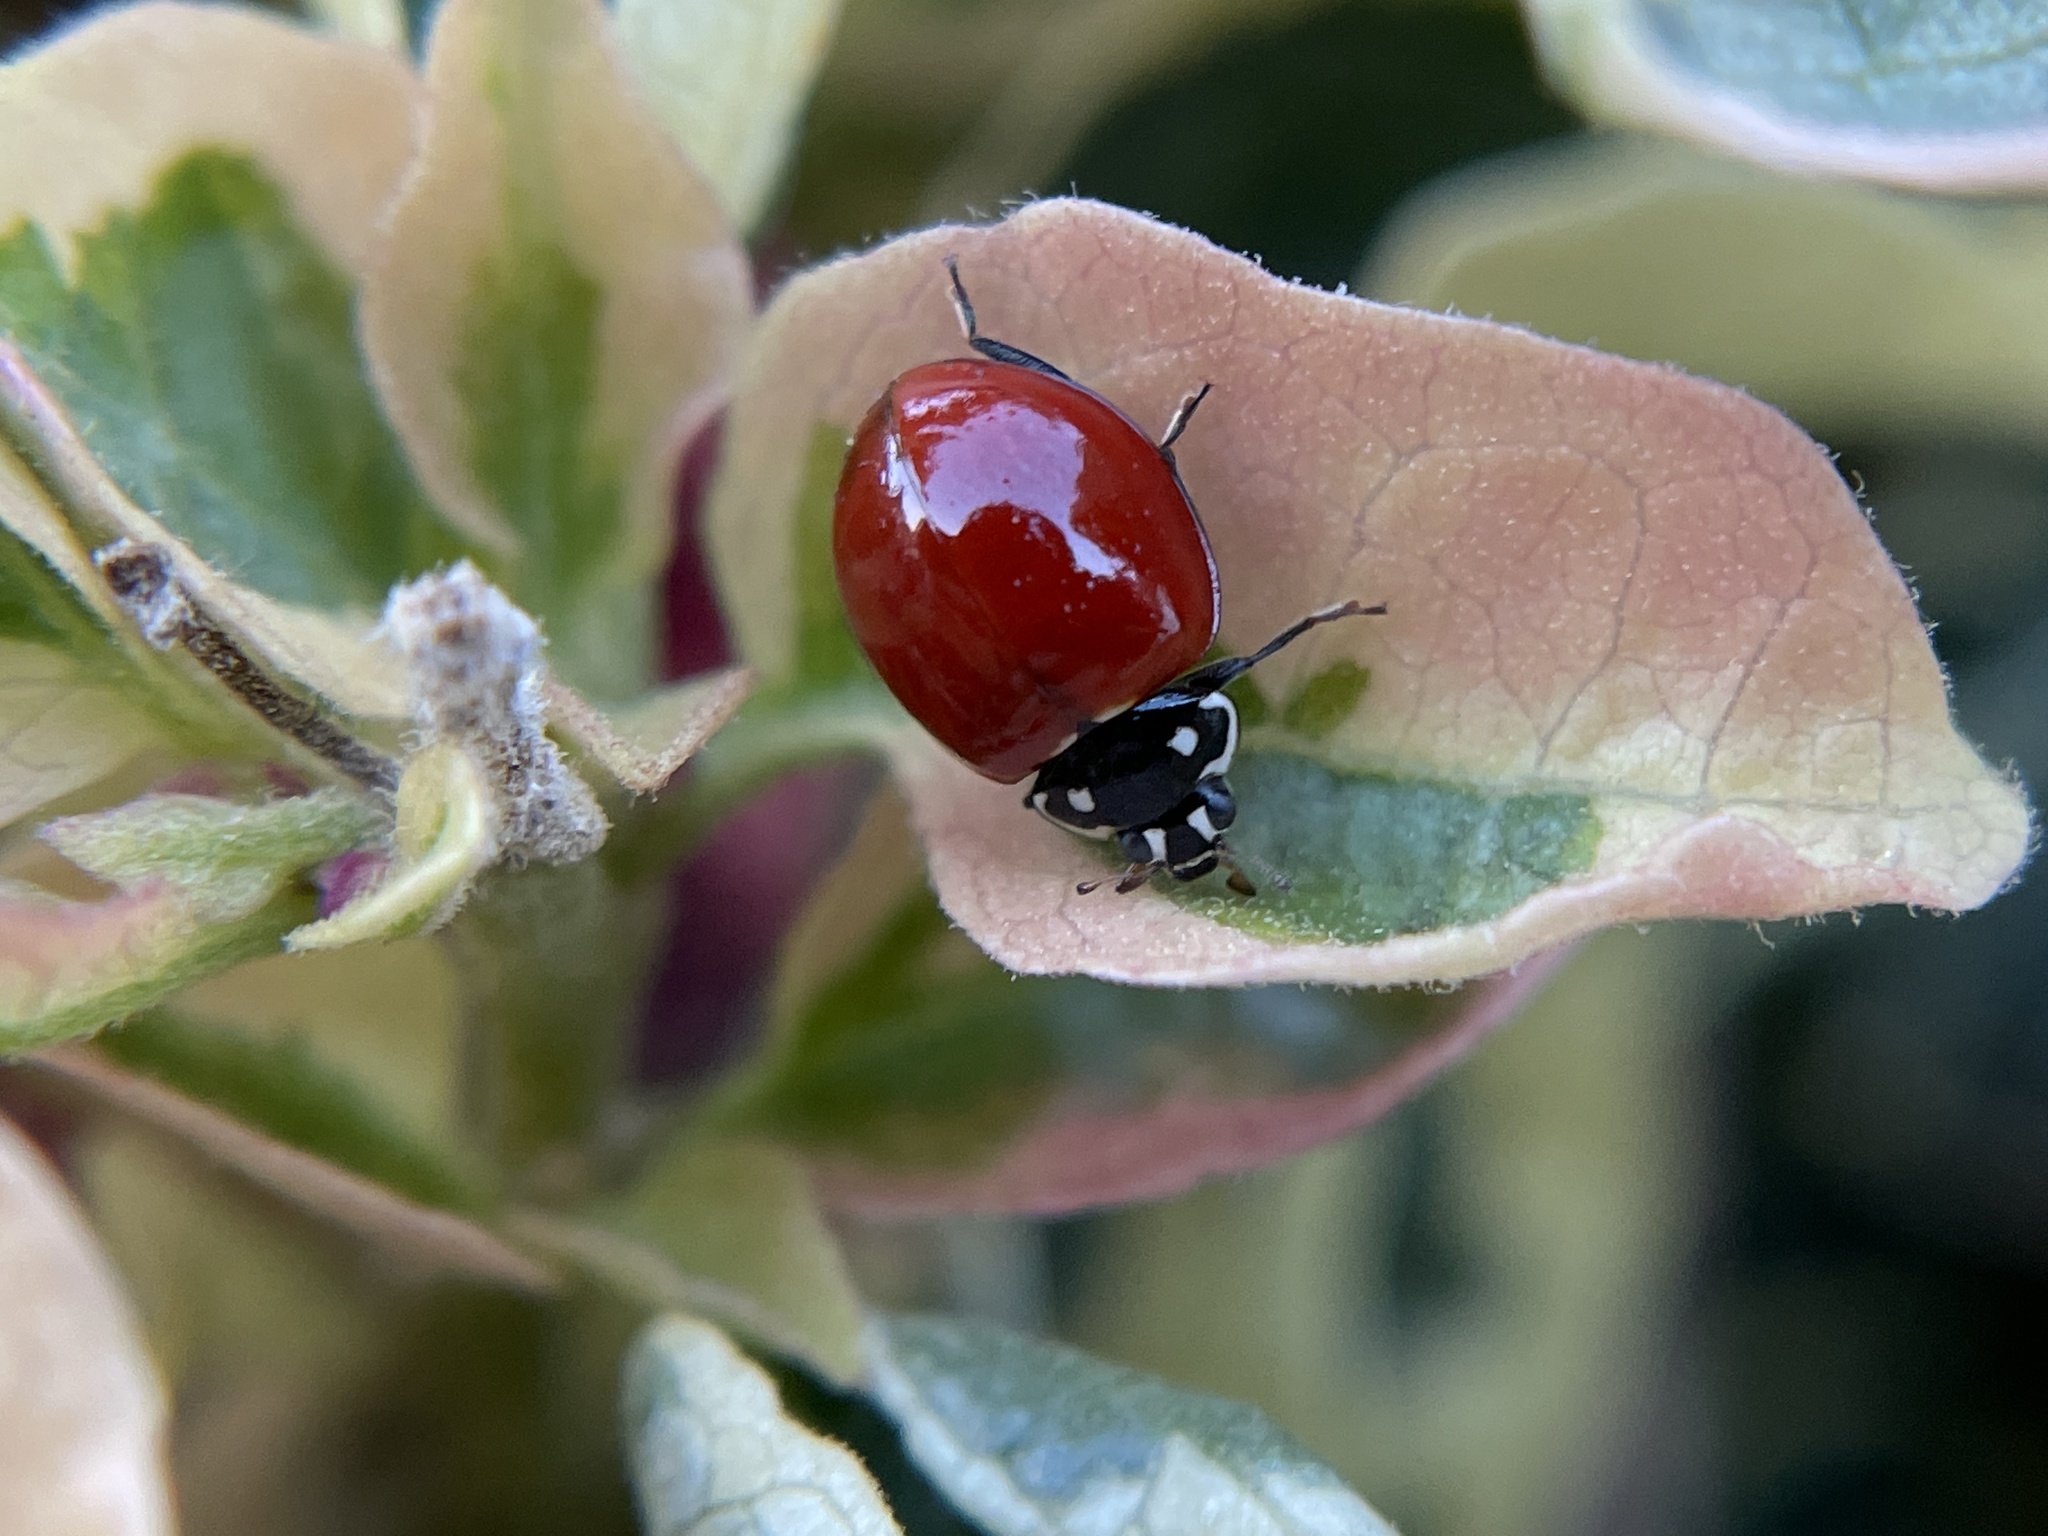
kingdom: Animalia
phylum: Arthropoda
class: Insecta
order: Coleoptera
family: Coccinellidae
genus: Cycloneda
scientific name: Cycloneda sanguinea
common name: Ladybird beetle
